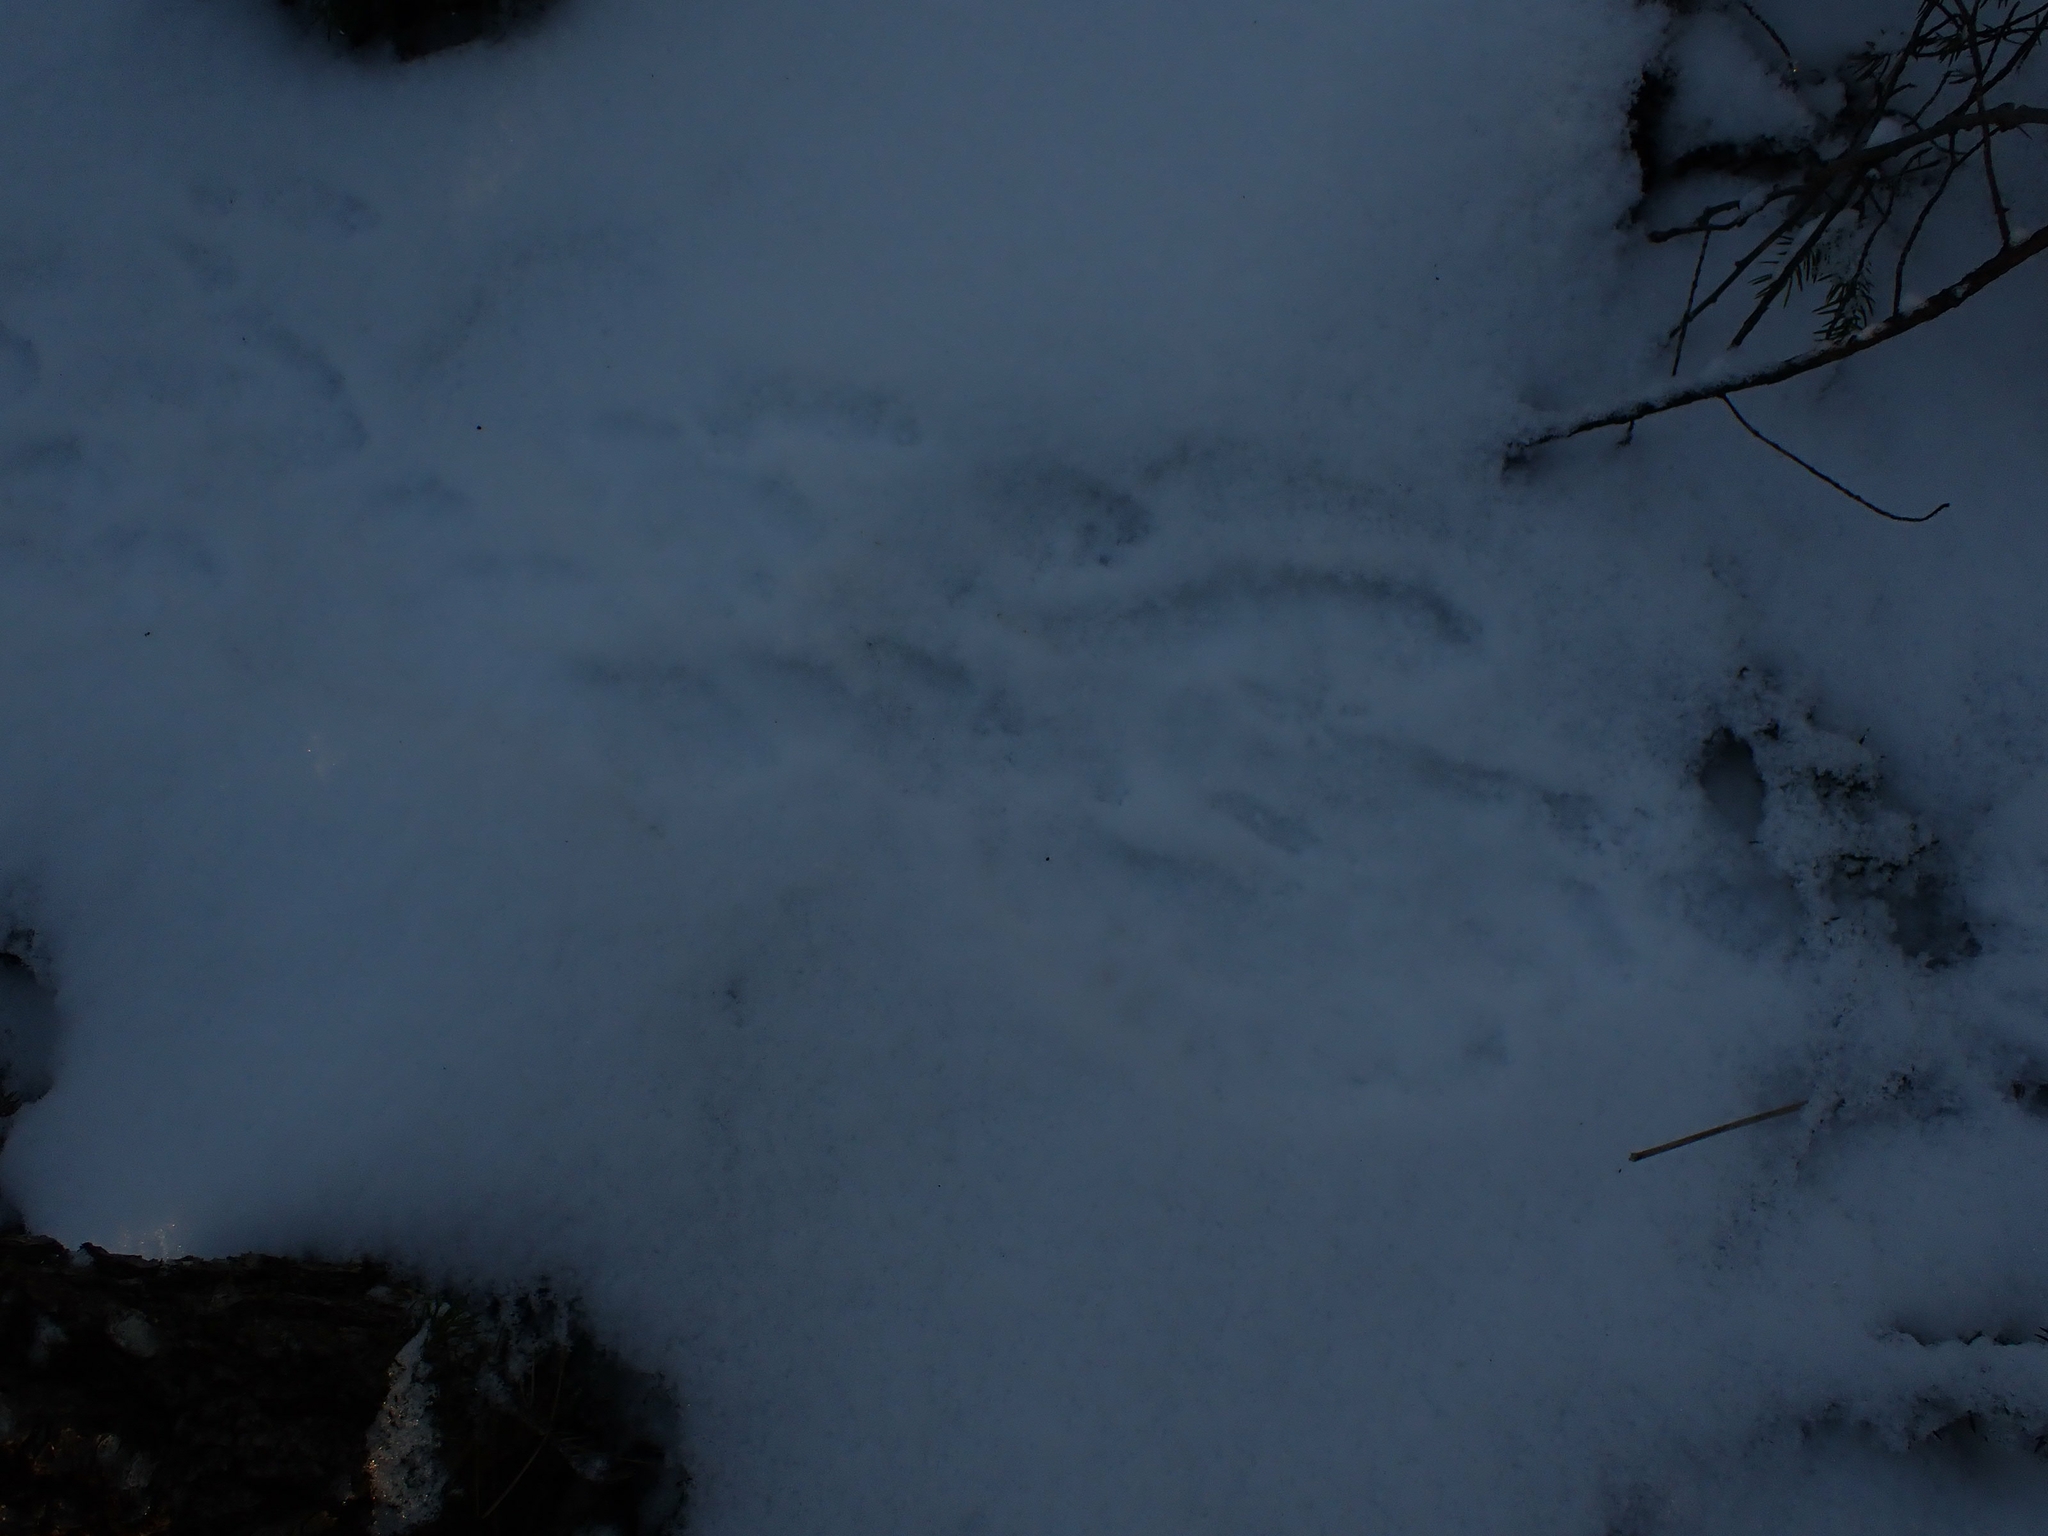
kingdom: Animalia
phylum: Chordata
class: Mammalia
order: Lagomorpha
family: Leporidae
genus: Lepus
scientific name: Lepus americanus
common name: Snowshoe hare
